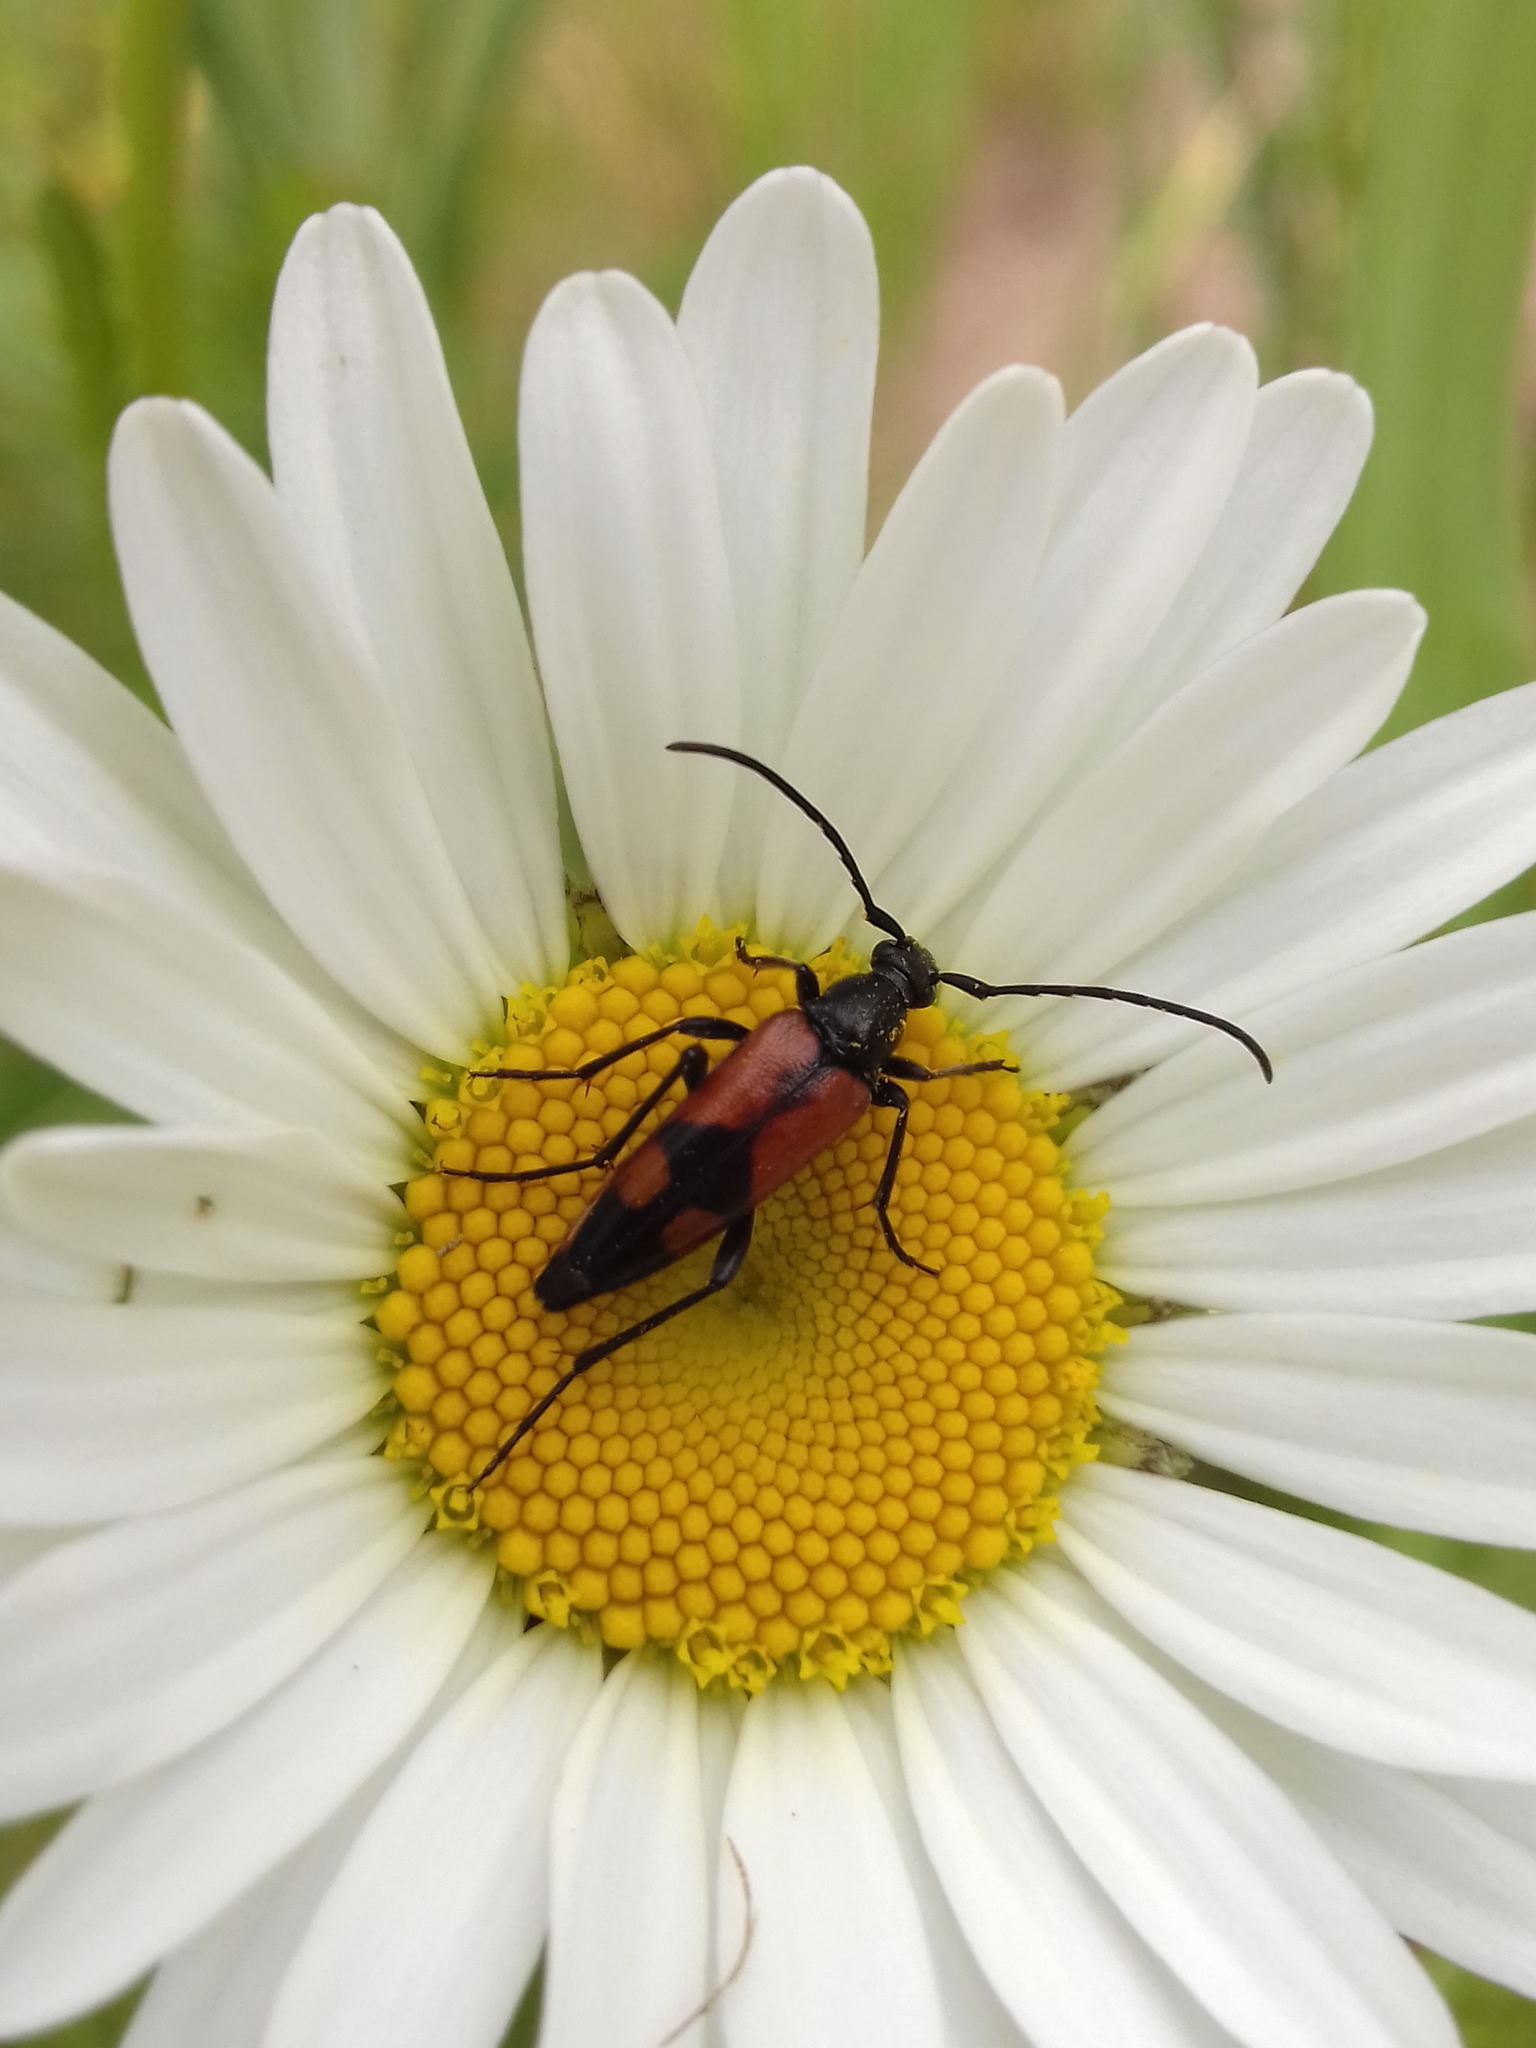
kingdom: Animalia
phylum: Arthropoda
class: Insecta
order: Coleoptera
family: Cerambycidae
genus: Stenurella
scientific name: Stenurella bifasciata
